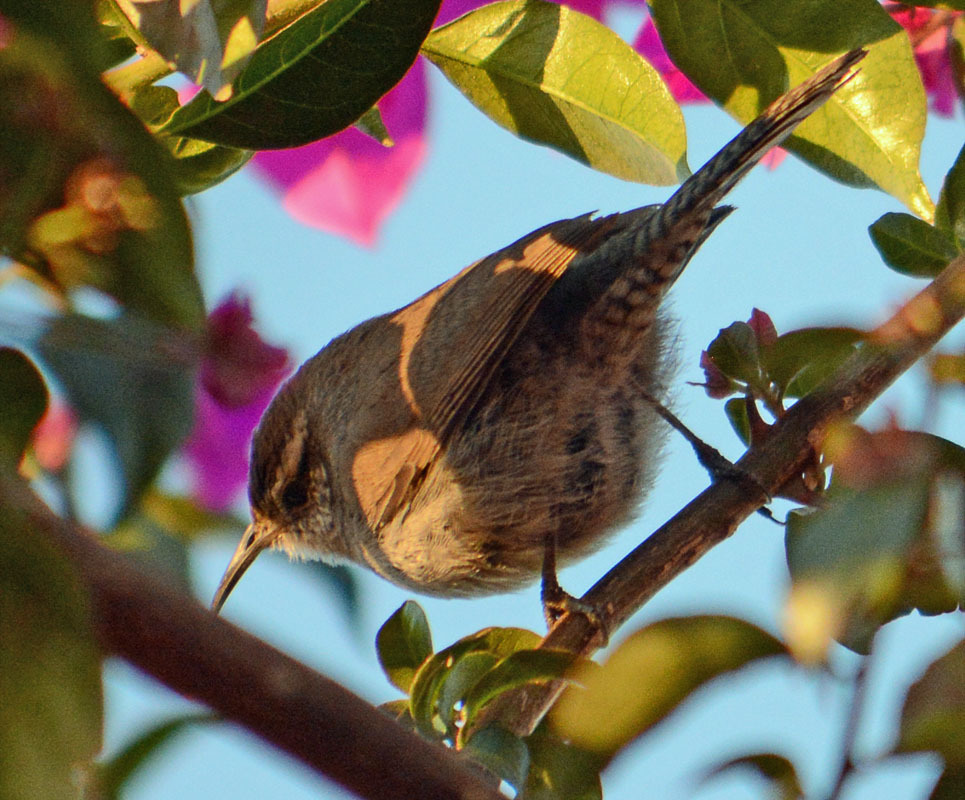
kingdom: Animalia
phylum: Chordata
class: Aves
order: Passeriformes
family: Troglodytidae
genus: Thryomanes
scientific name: Thryomanes bewickii
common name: Bewick's wren
